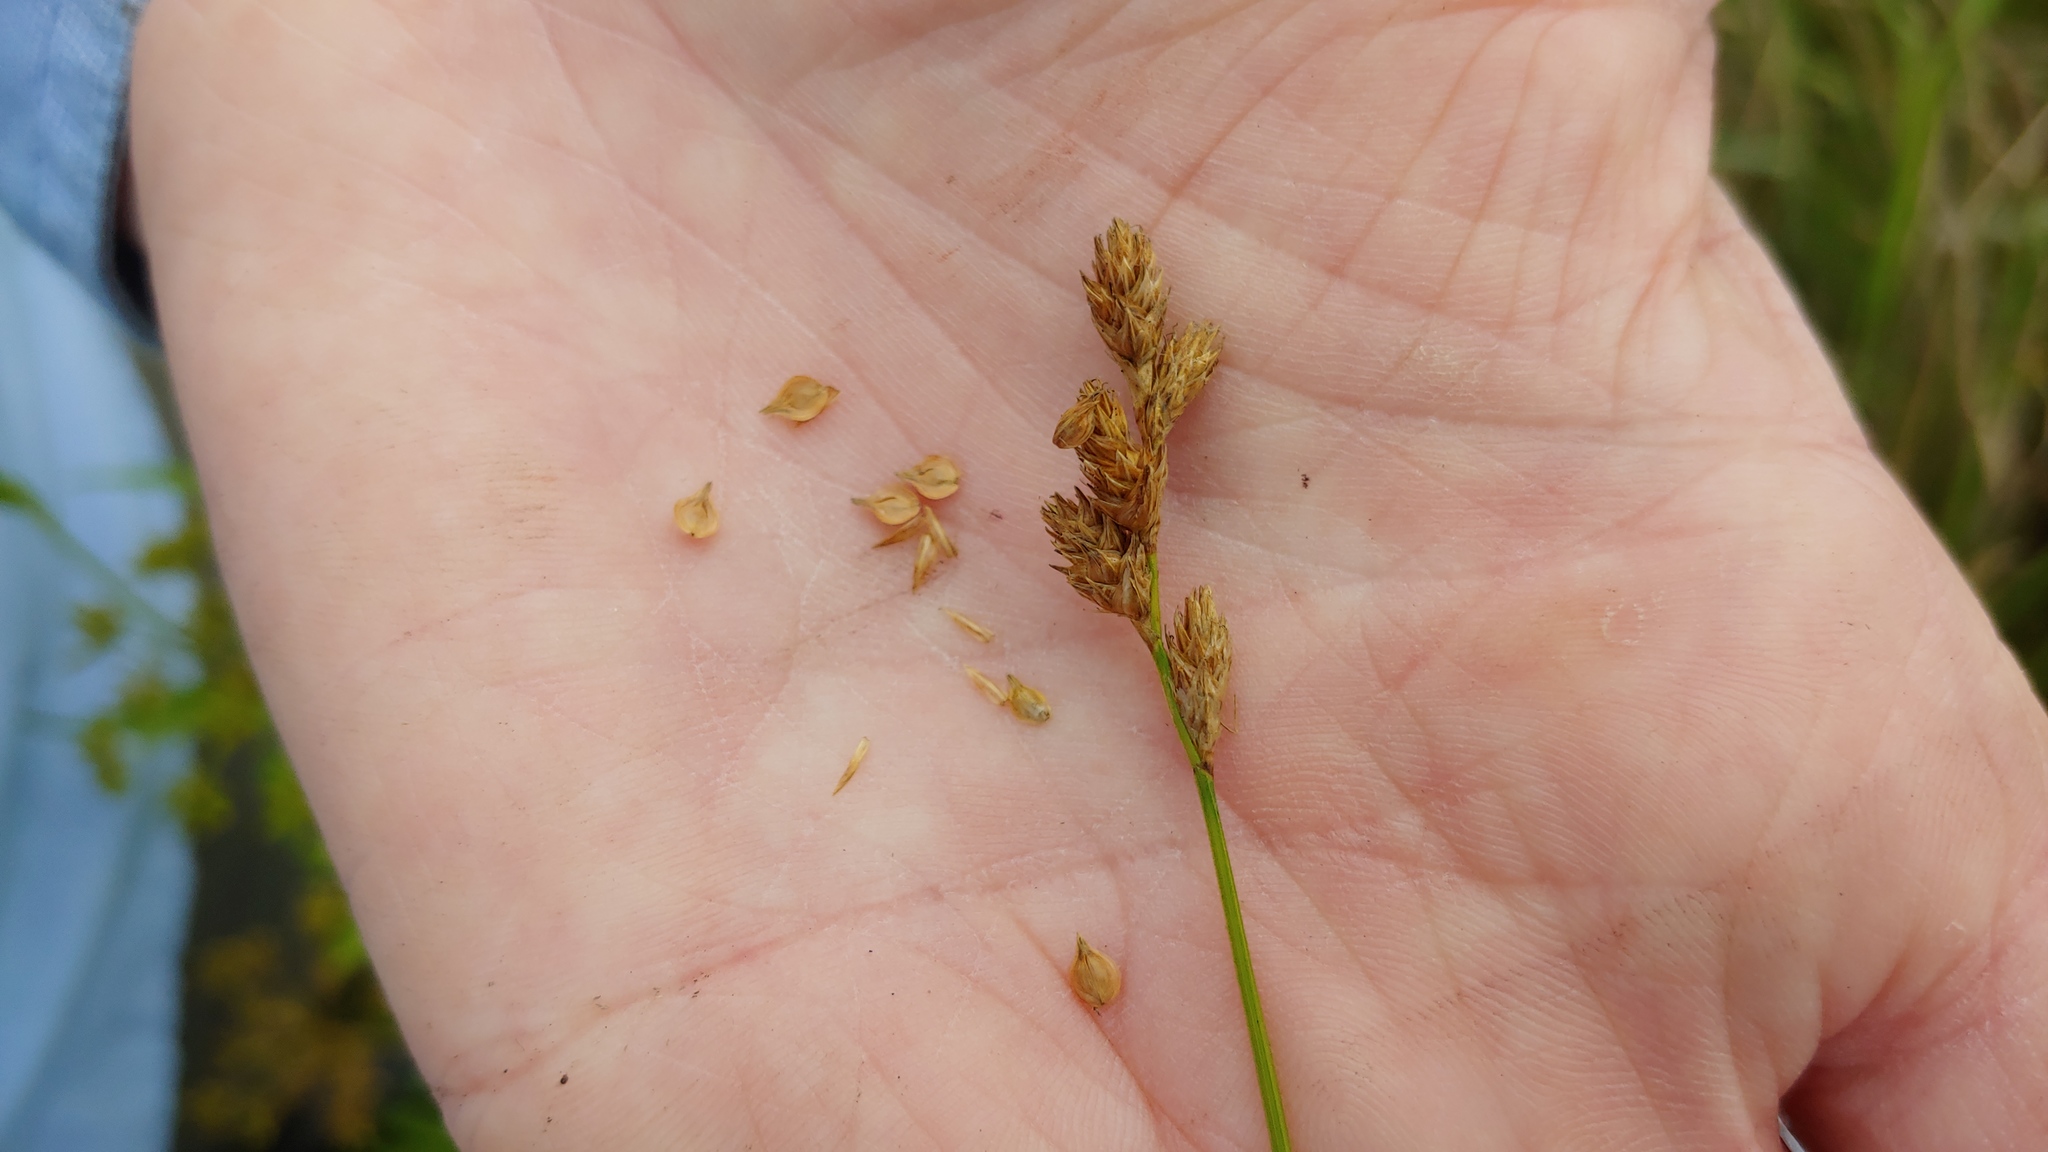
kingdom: Plantae
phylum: Tracheophyta
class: Liliopsida
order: Poales
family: Cyperaceae
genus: Carex
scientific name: Carex missouriensis
